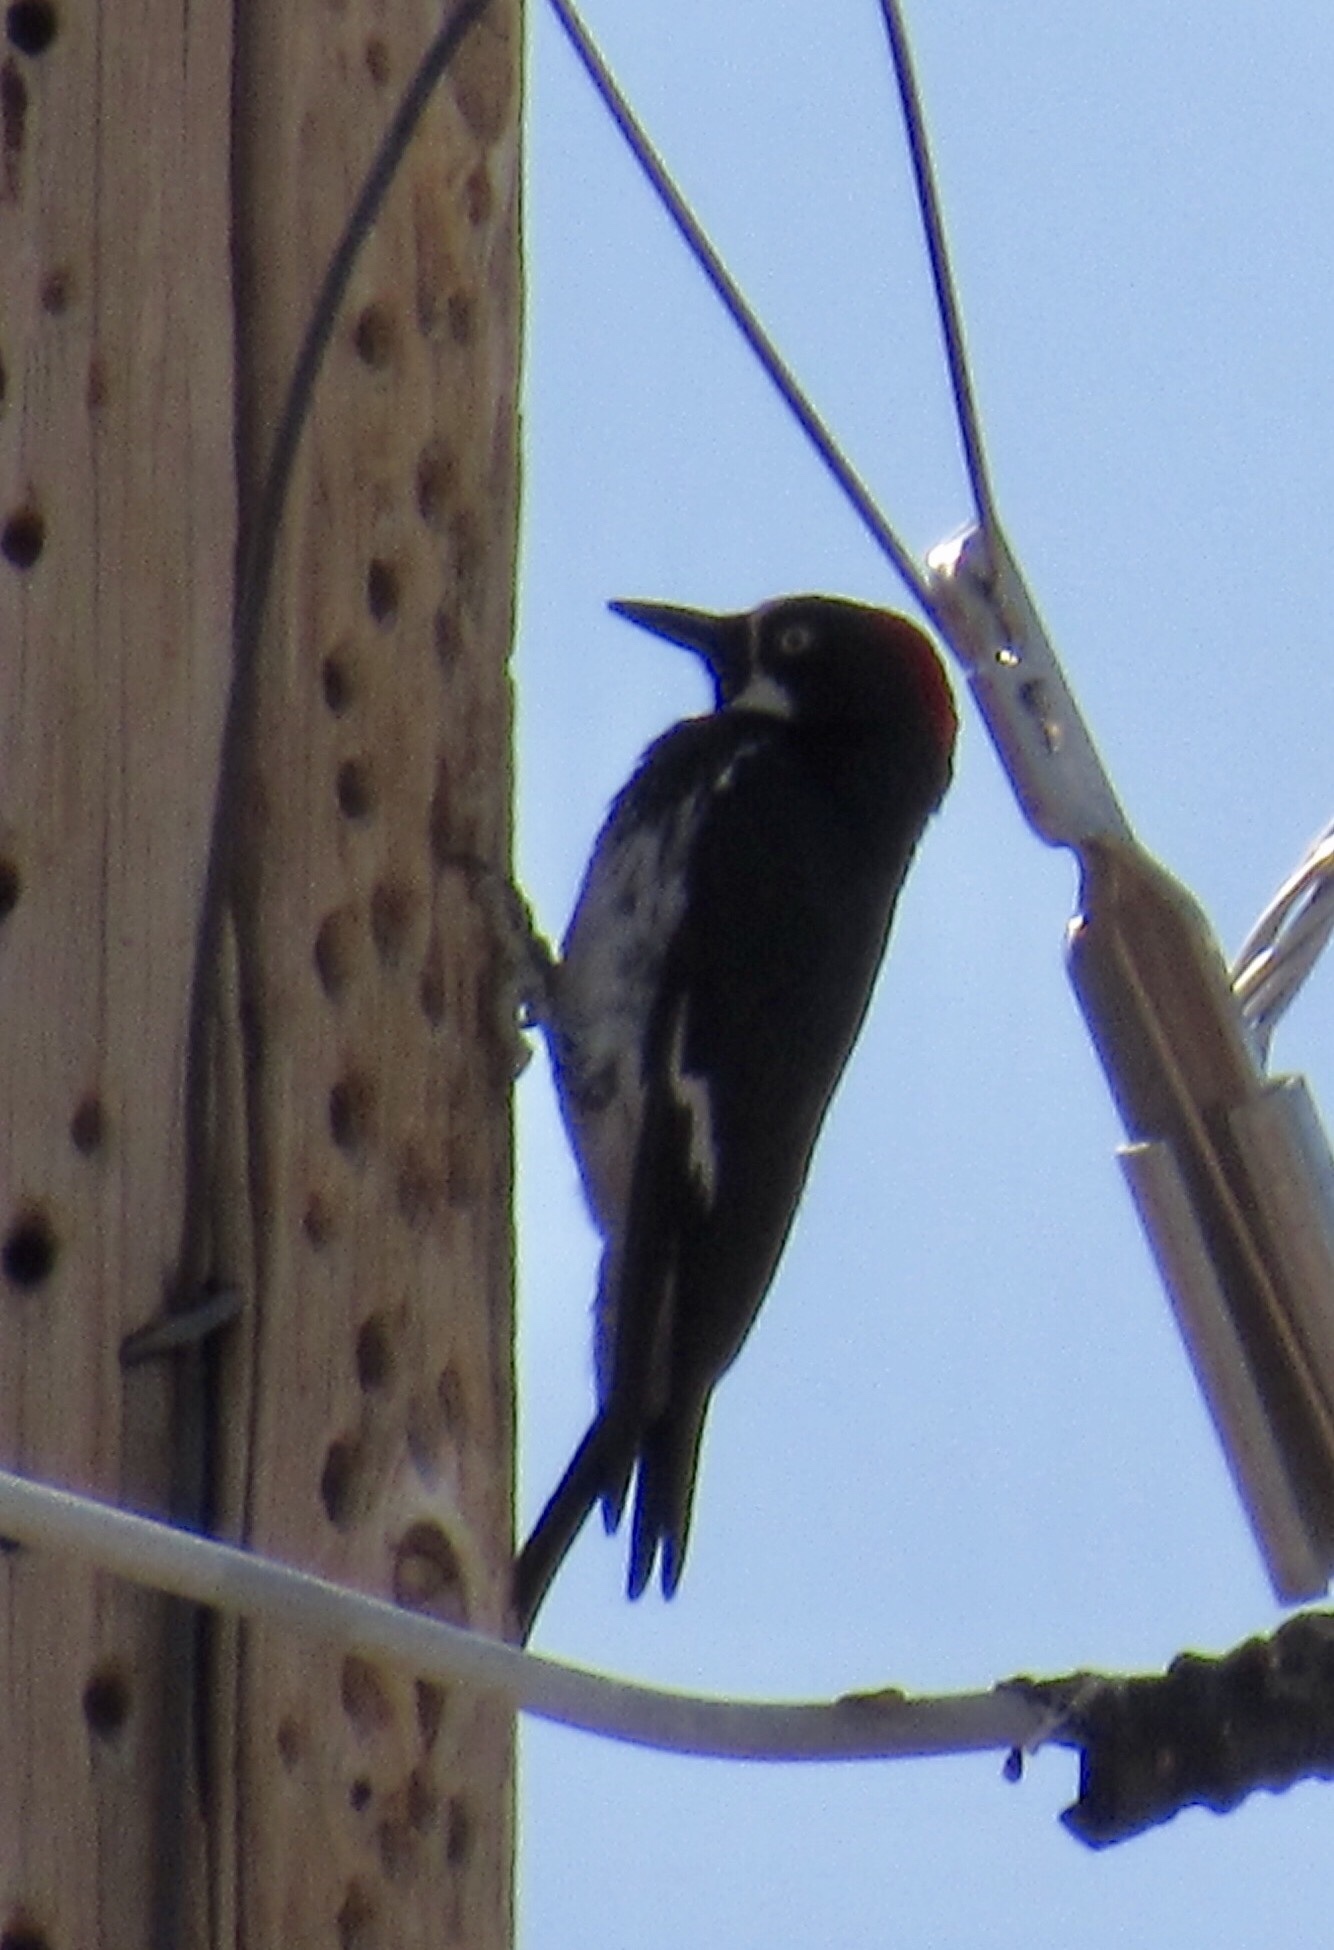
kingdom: Animalia
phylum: Chordata
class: Aves
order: Piciformes
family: Picidae
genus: Melanerpes
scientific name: Melanerpes formicivorus
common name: Acorn woodpecker
